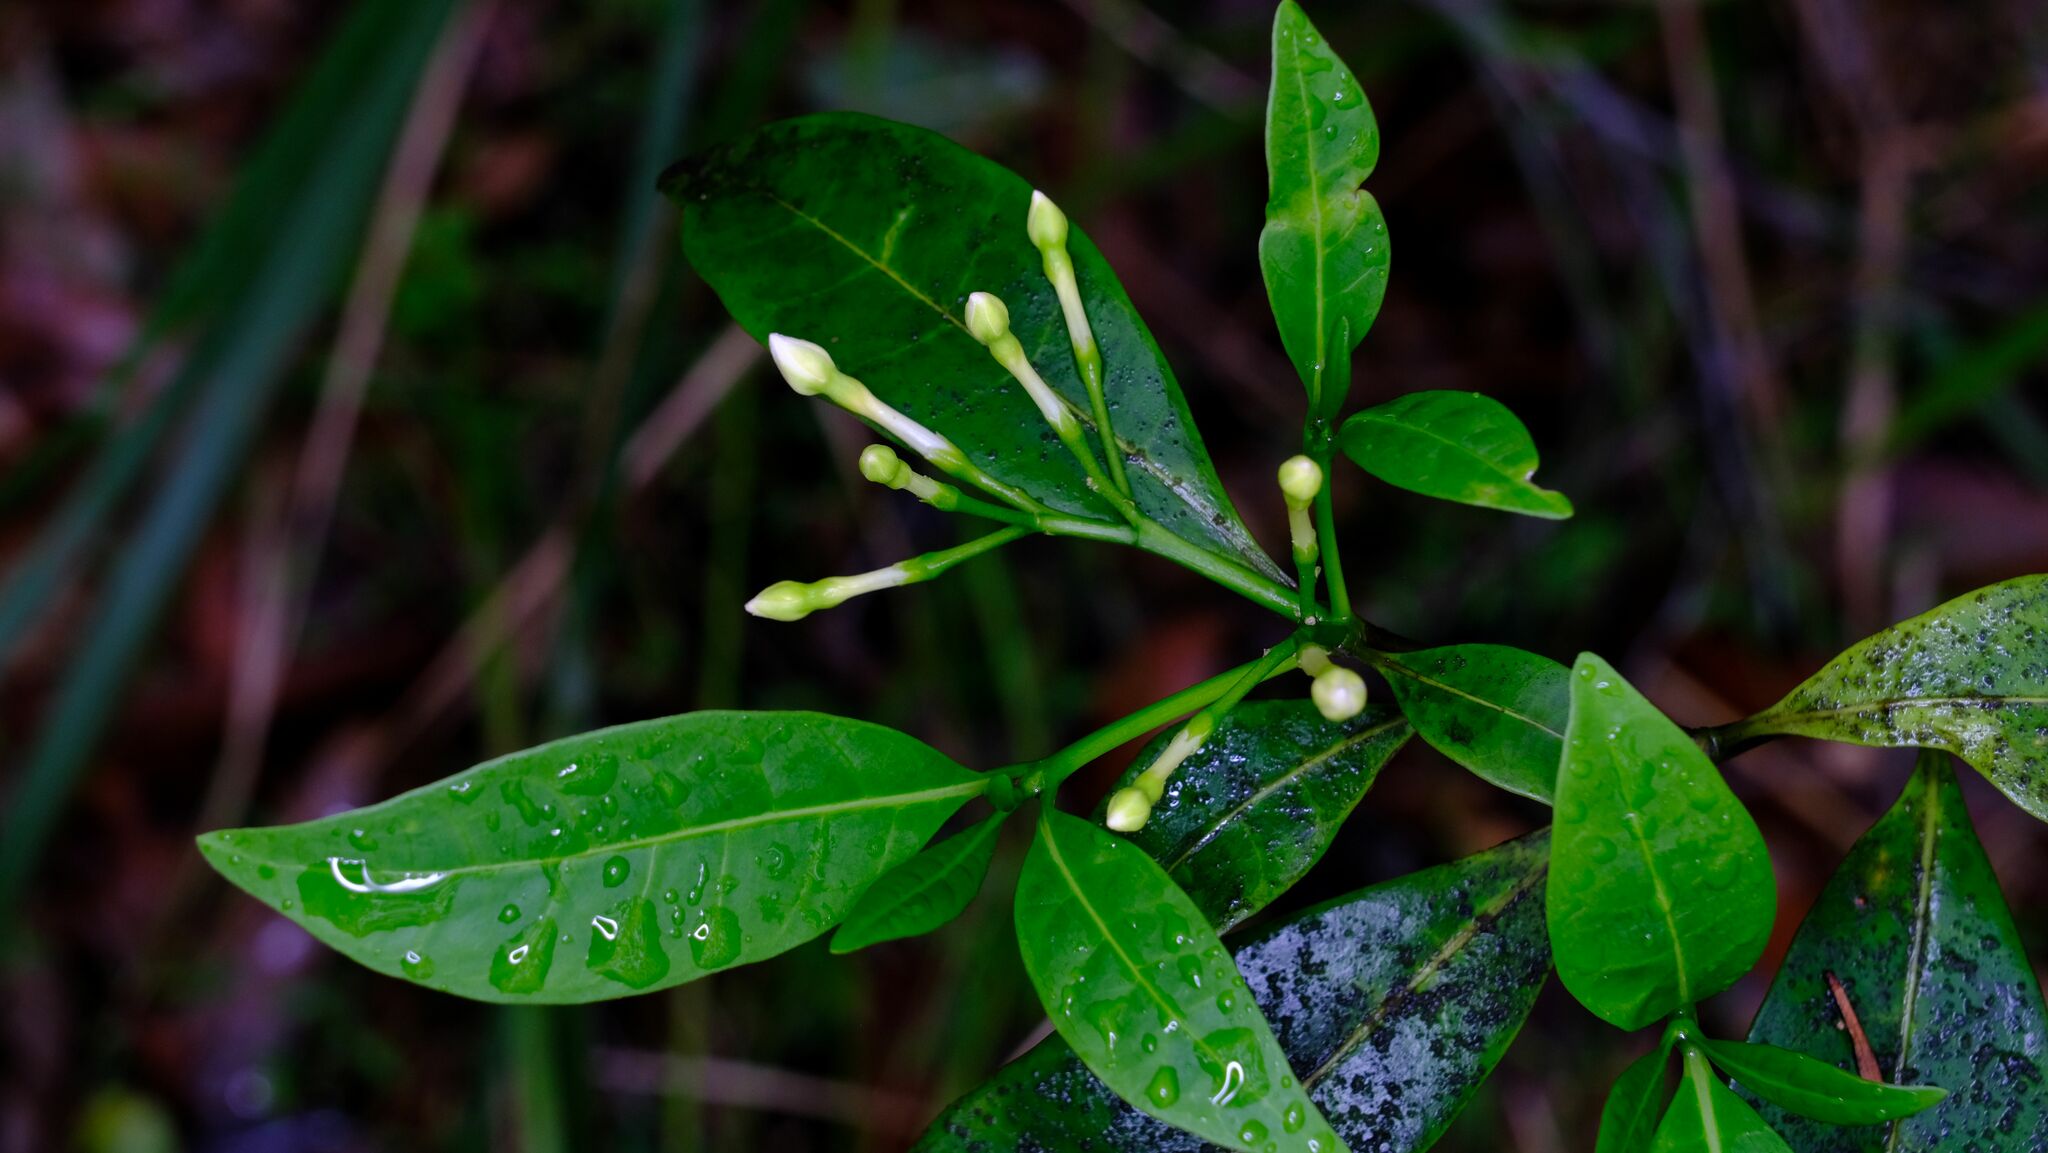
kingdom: Plantae
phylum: Tracheophyta
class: Magnoliopsida
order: Gentianales
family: Apocynaceae
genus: Tabernaemontana
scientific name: Tabernaemontana pandacaqui
